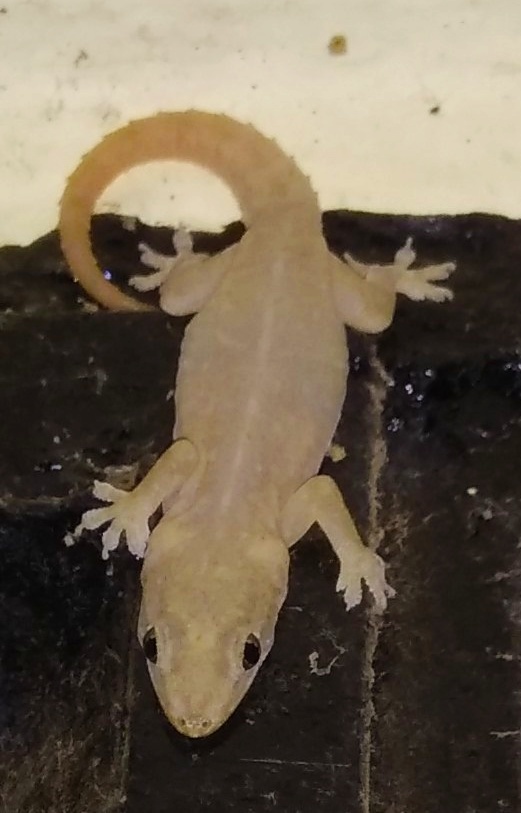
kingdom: Animalia
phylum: Chordata
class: Squamata
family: Gekkonidae
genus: Hemidactylus
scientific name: Hemidactylus frenatus
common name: Common house gecko
